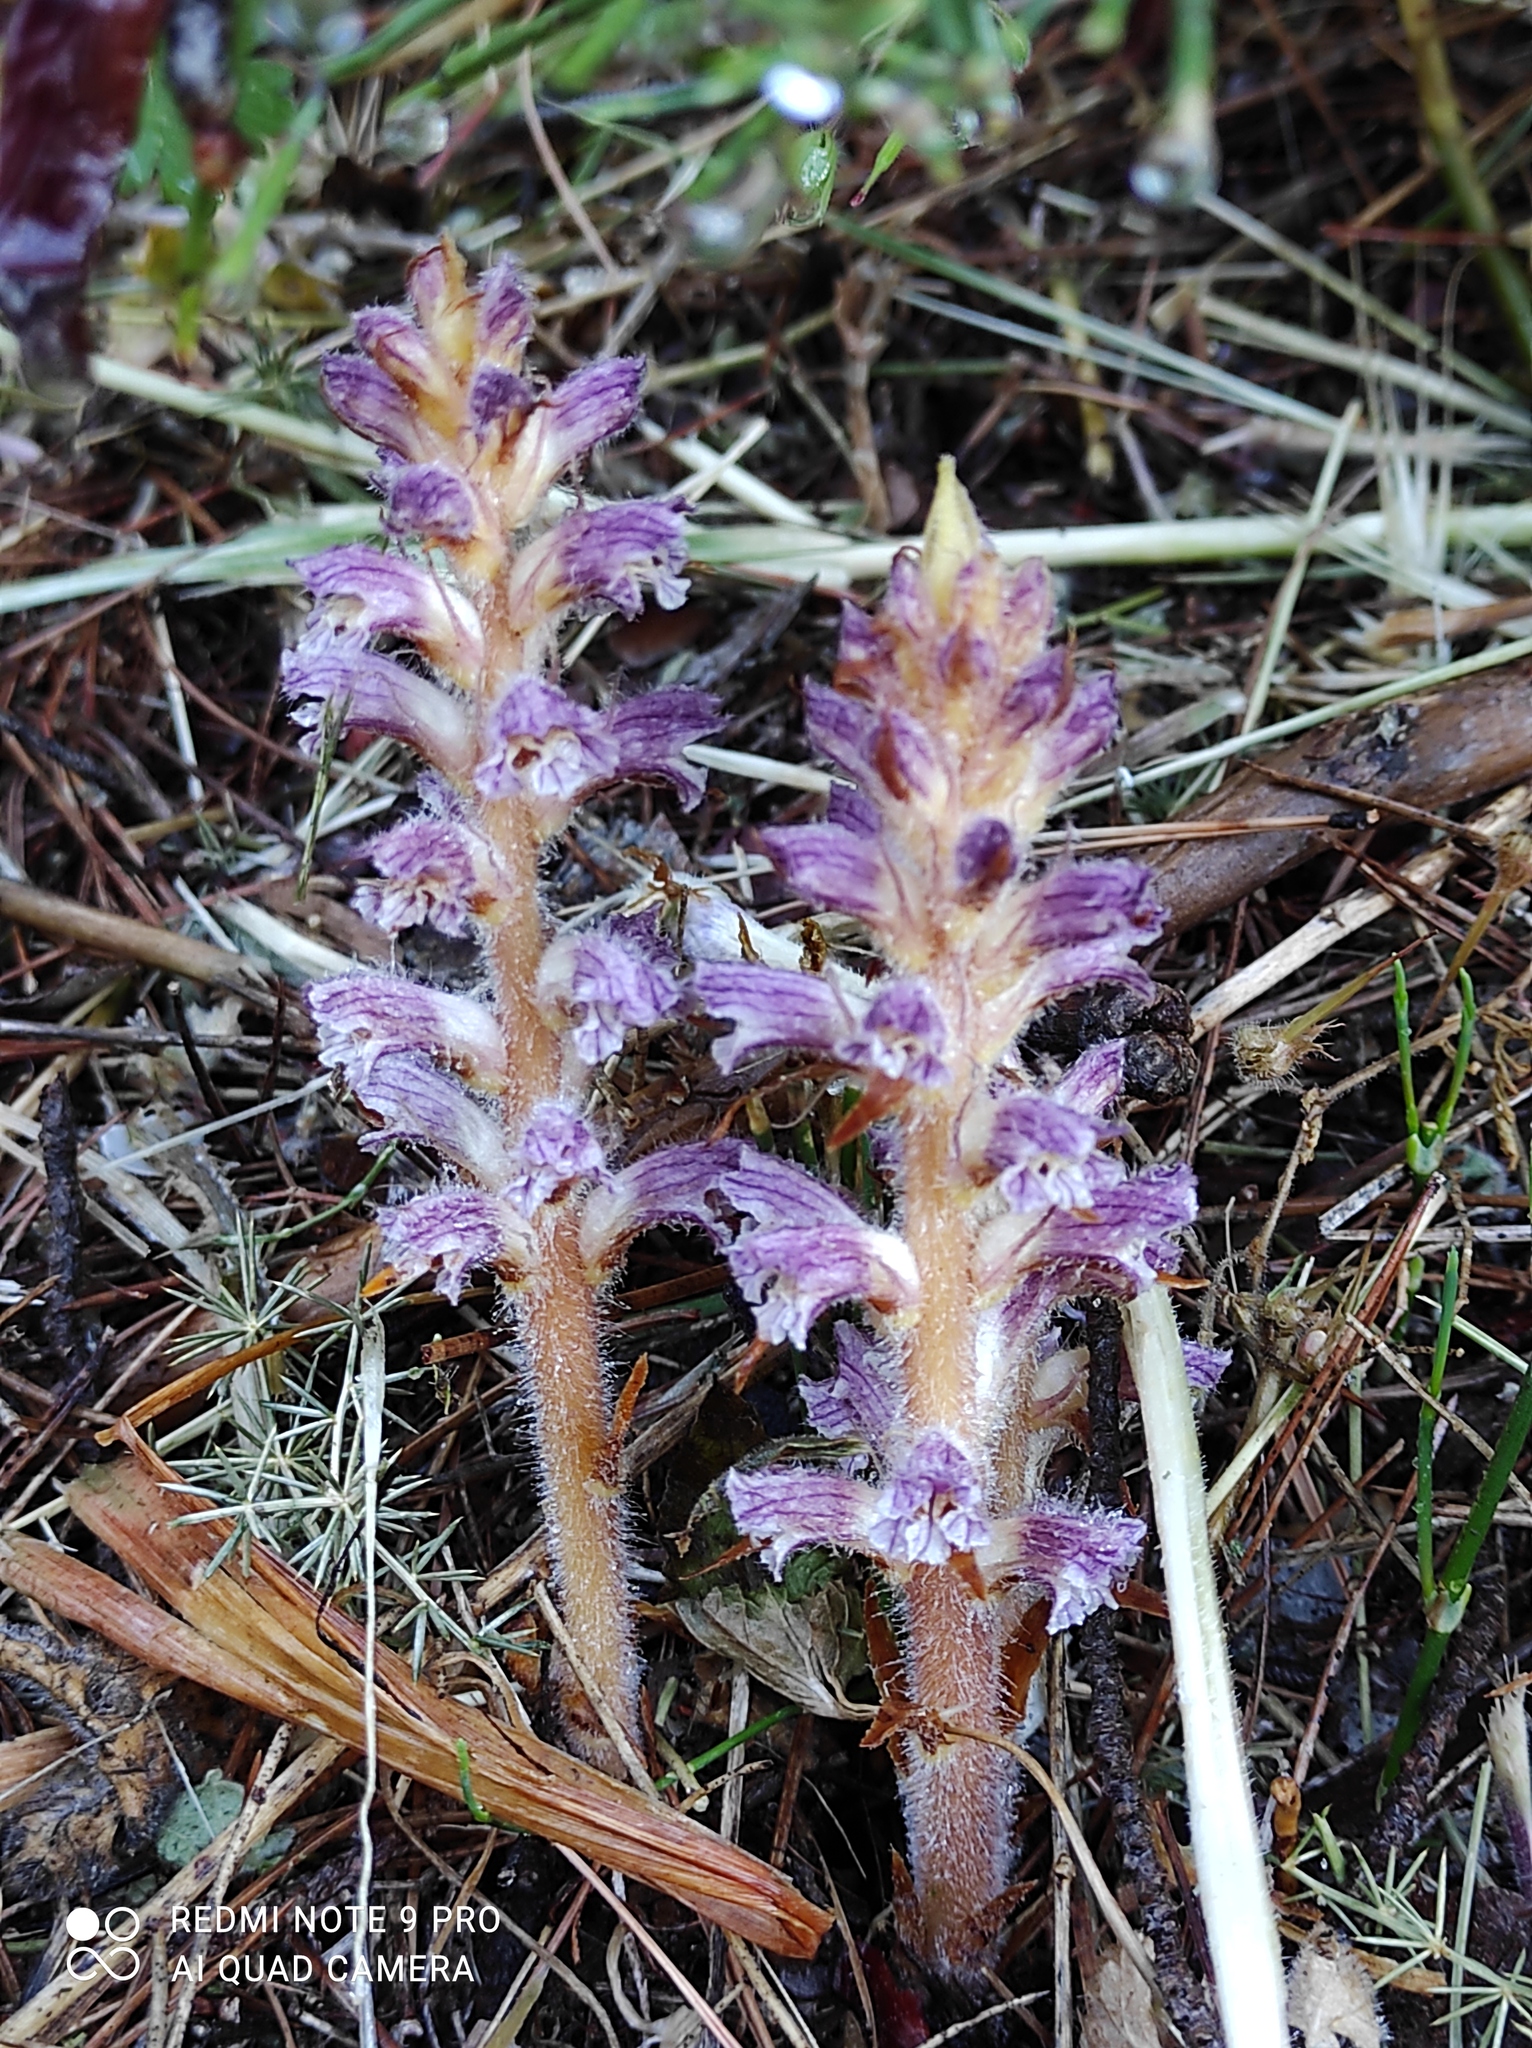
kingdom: Plantae
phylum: Tracheophyta
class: Magnoliopsida
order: Lamiales
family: Orobanchaceae
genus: Orobanche
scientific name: Orobanche pubescens
